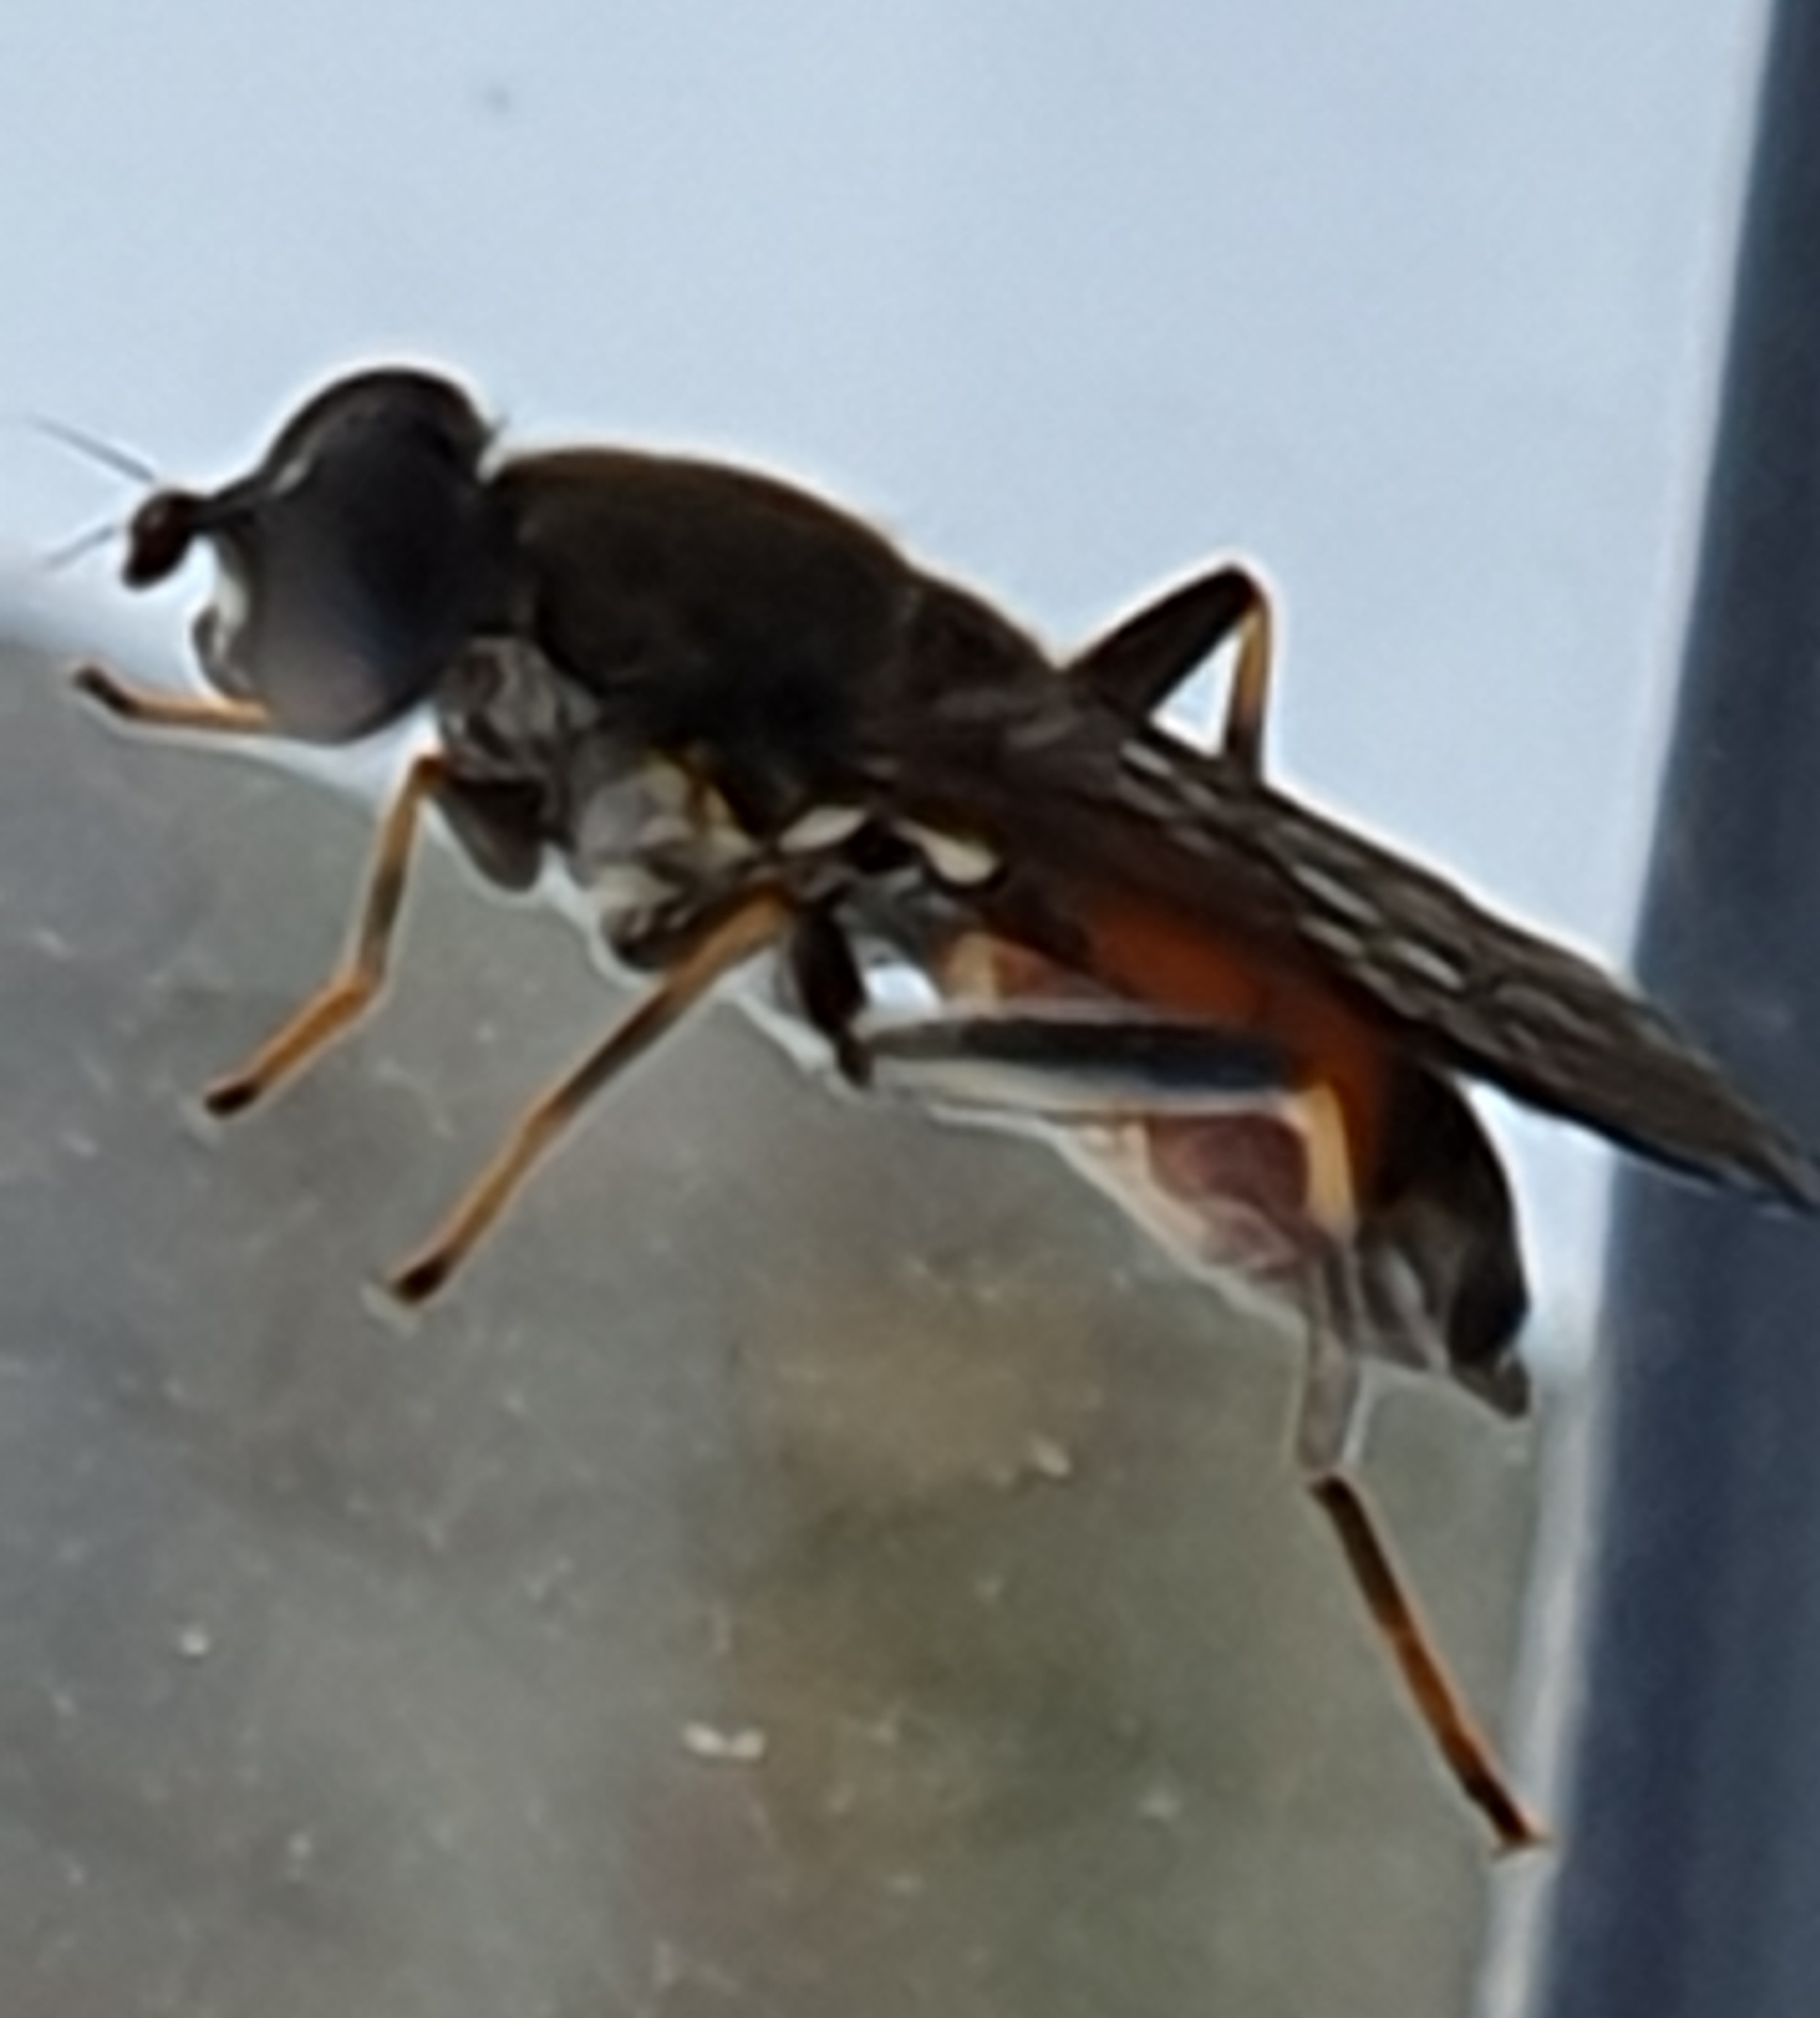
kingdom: Animalia
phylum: Arthropoda
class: Insecta
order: Diptera
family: Syrphidae
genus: Xylota
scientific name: Xylota segnis
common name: Brown-toed forest fly
